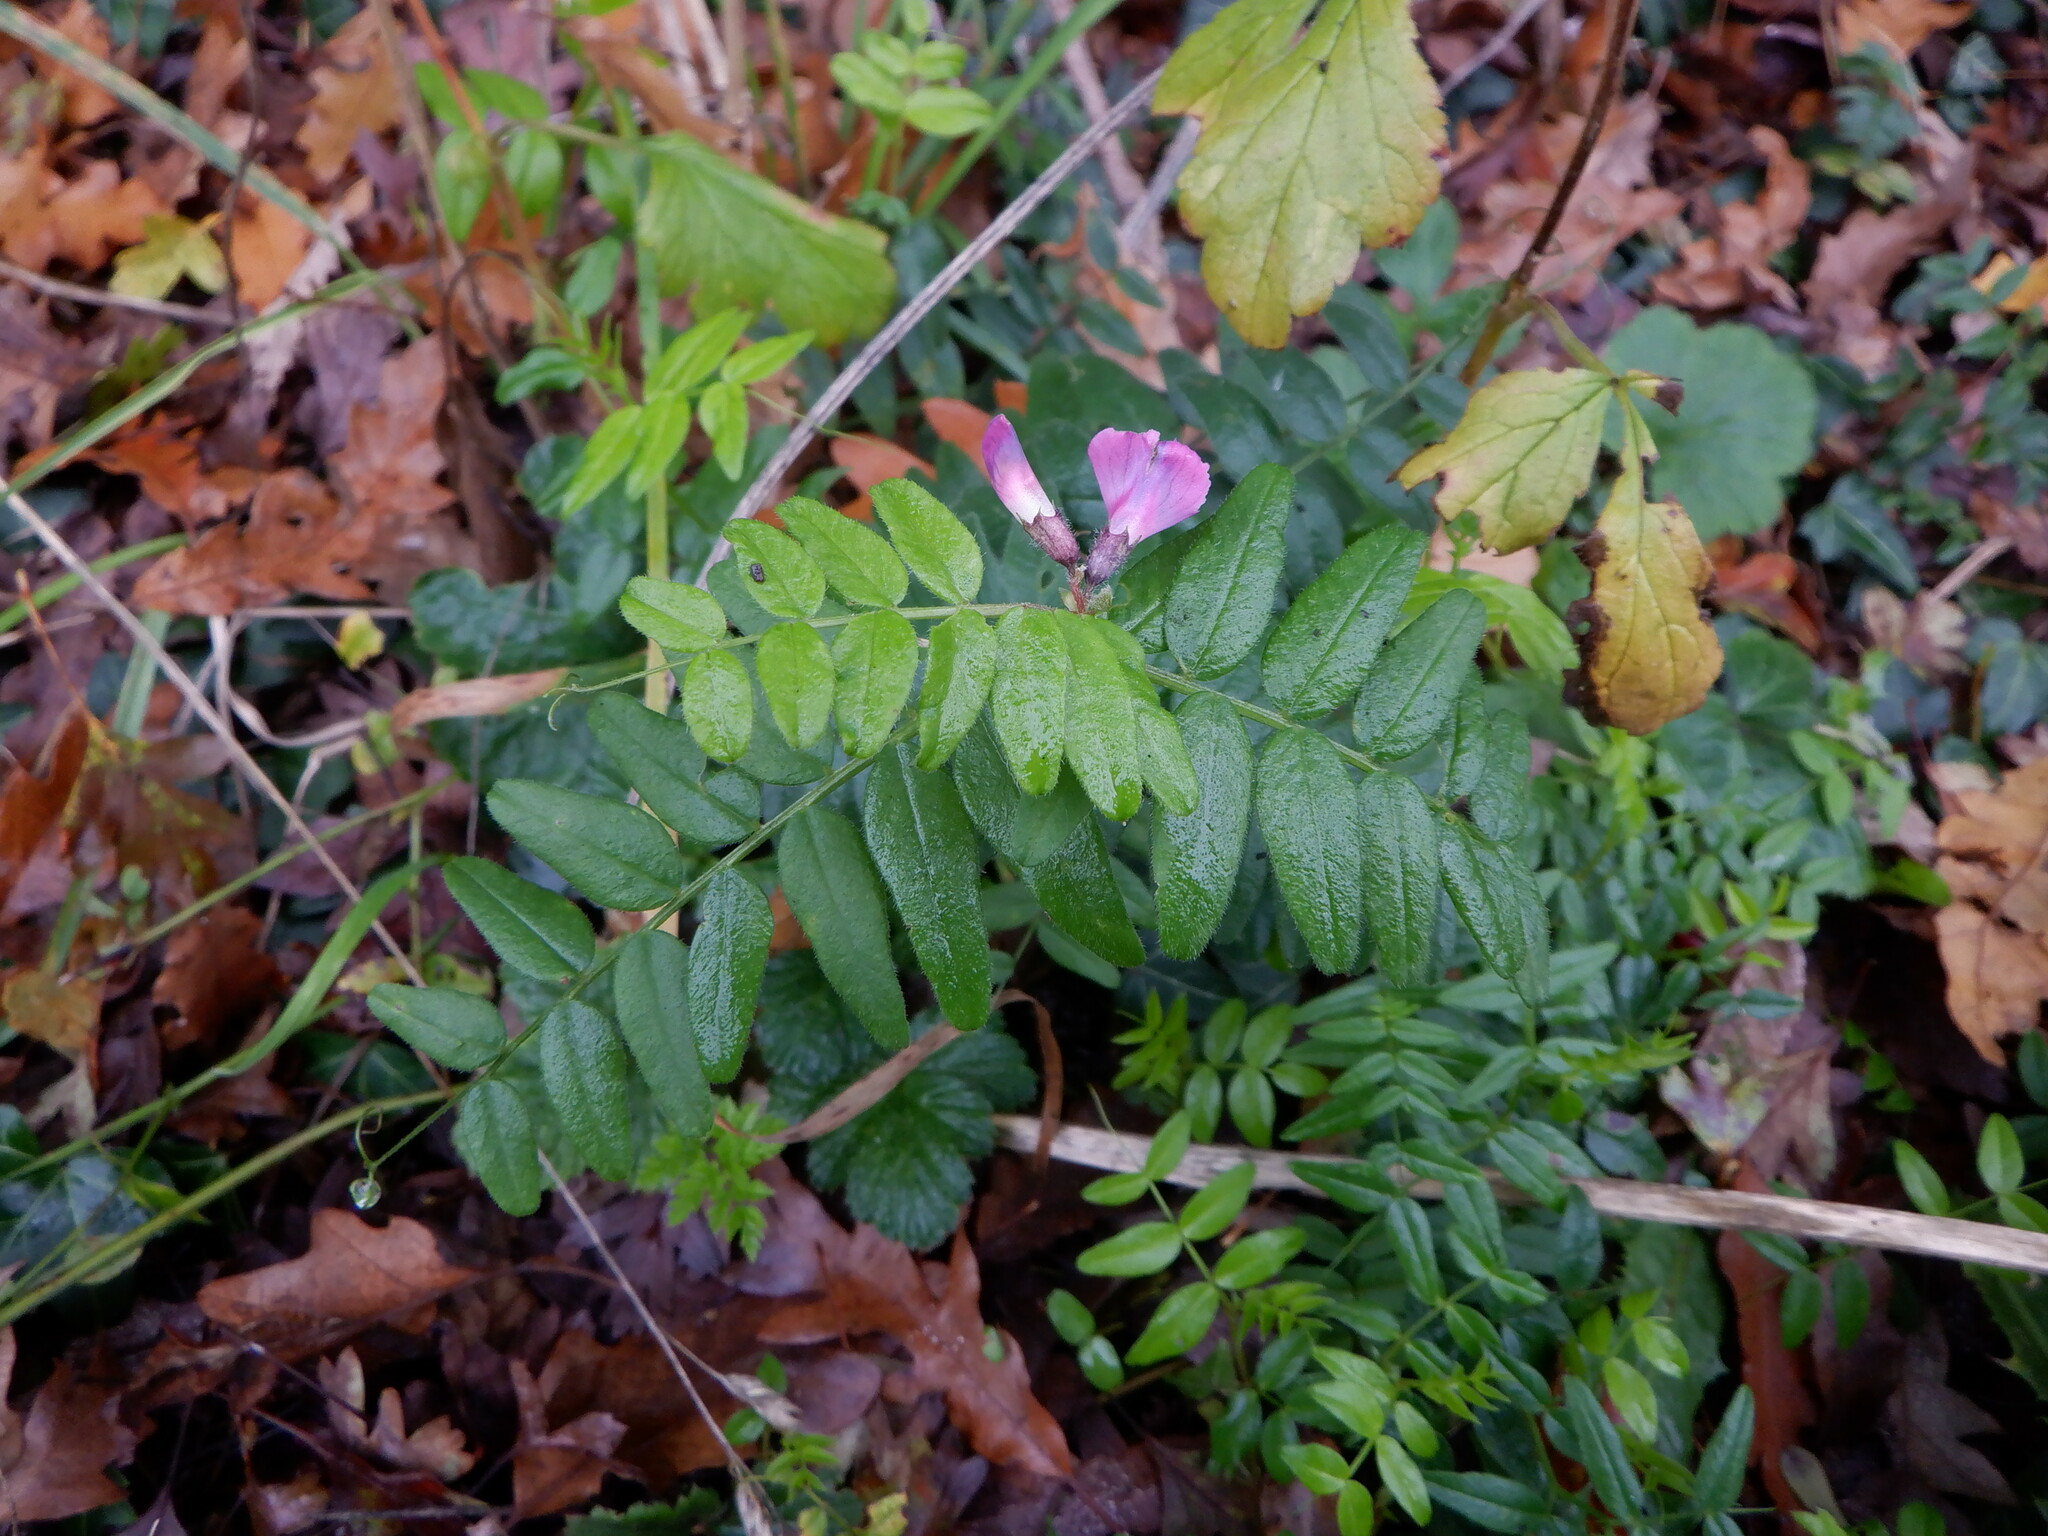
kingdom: Plantae
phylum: Tracheophyta
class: Magnoliopsida
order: Fabales
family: Fabaceae
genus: Vicia
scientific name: Vicia sepium
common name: Bush vetch
